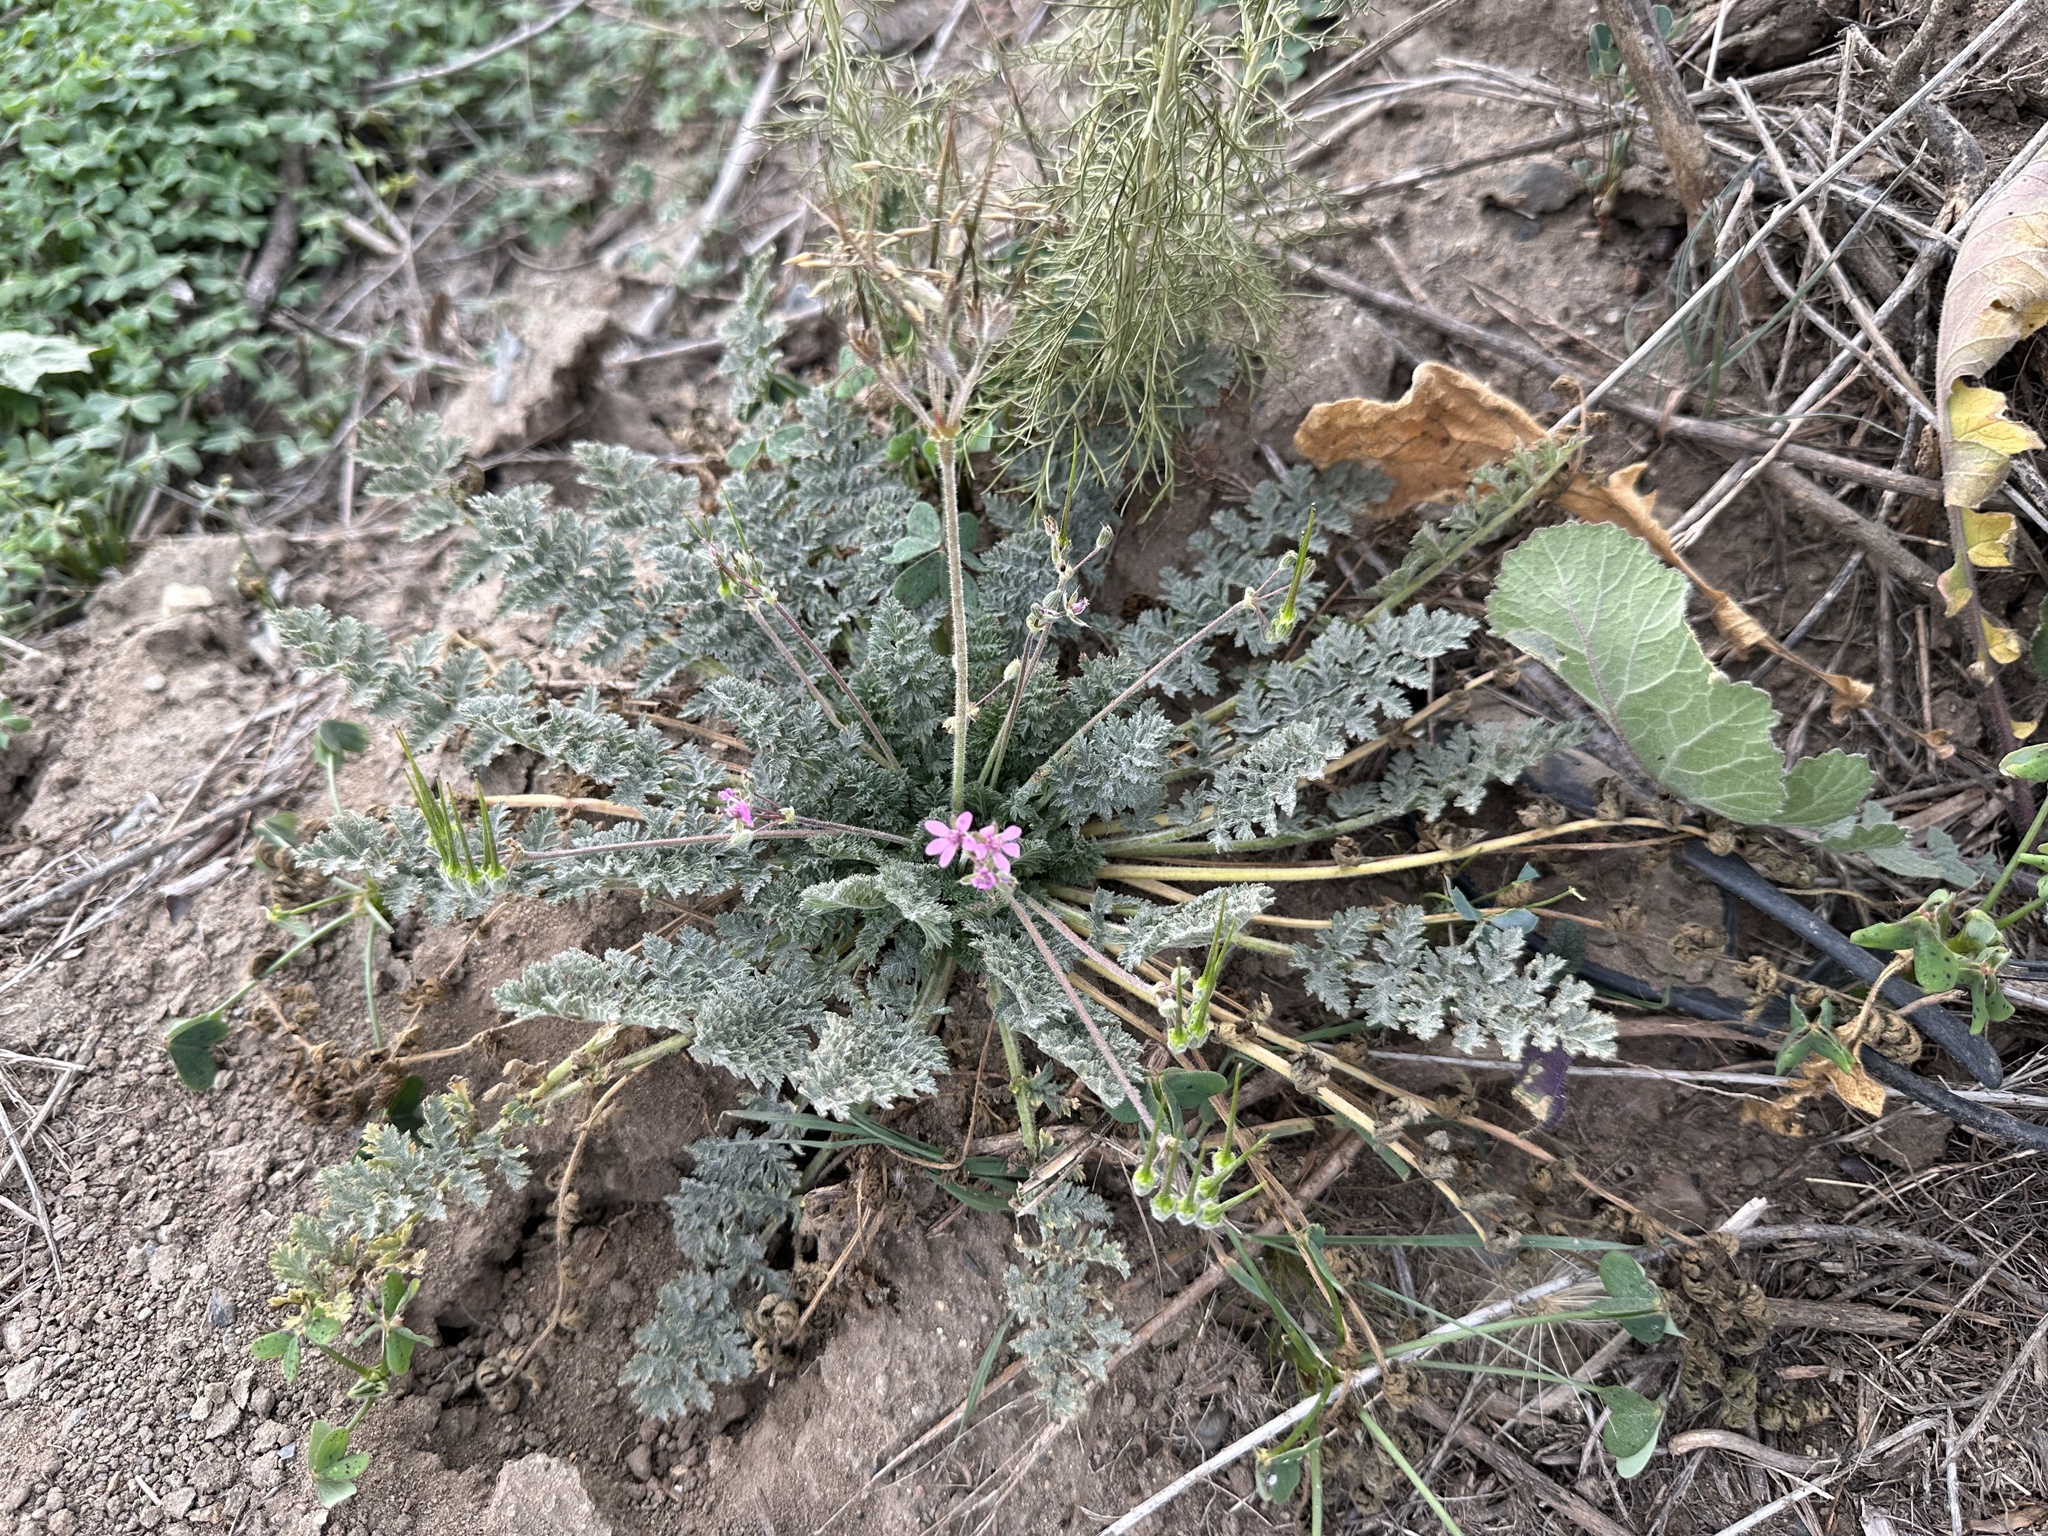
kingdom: Plantae
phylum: Tracheophyta
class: Magnoliopsida
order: Geraniales
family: Geraniaceae
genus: Erodium
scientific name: Erodium cicutarium
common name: Common stork's-bill
